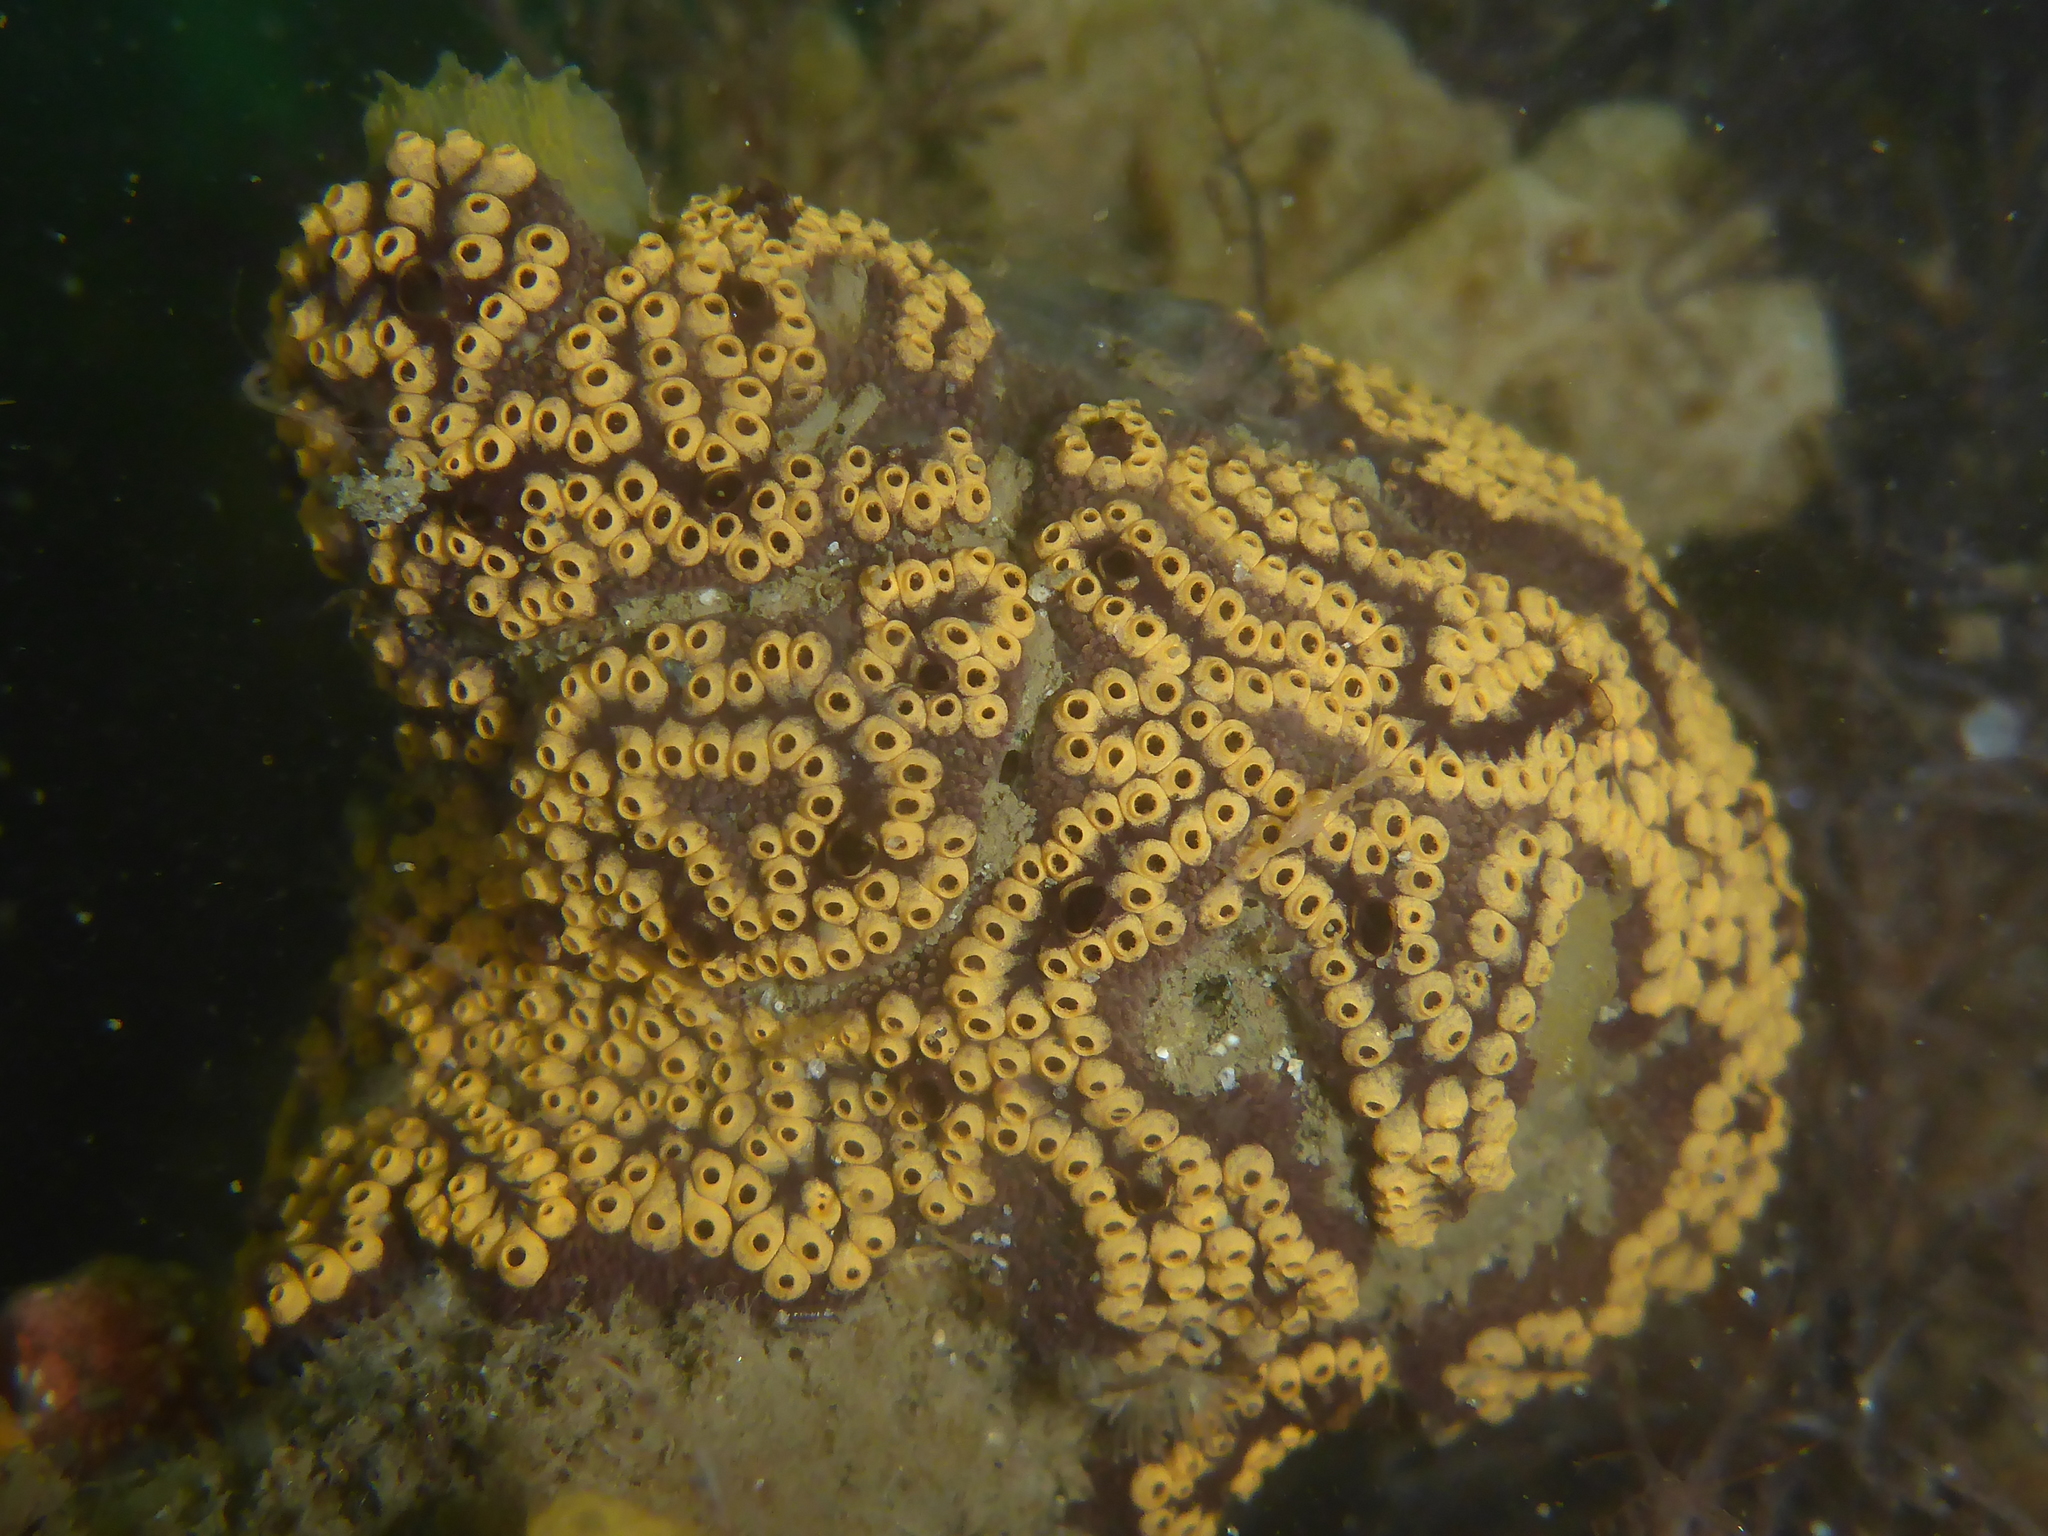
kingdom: Animalia
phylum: Chordata
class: Ascidiacea
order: Stolidobranchia
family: Styelidae
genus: Botrylloides
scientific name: Botrylloides diegensis
